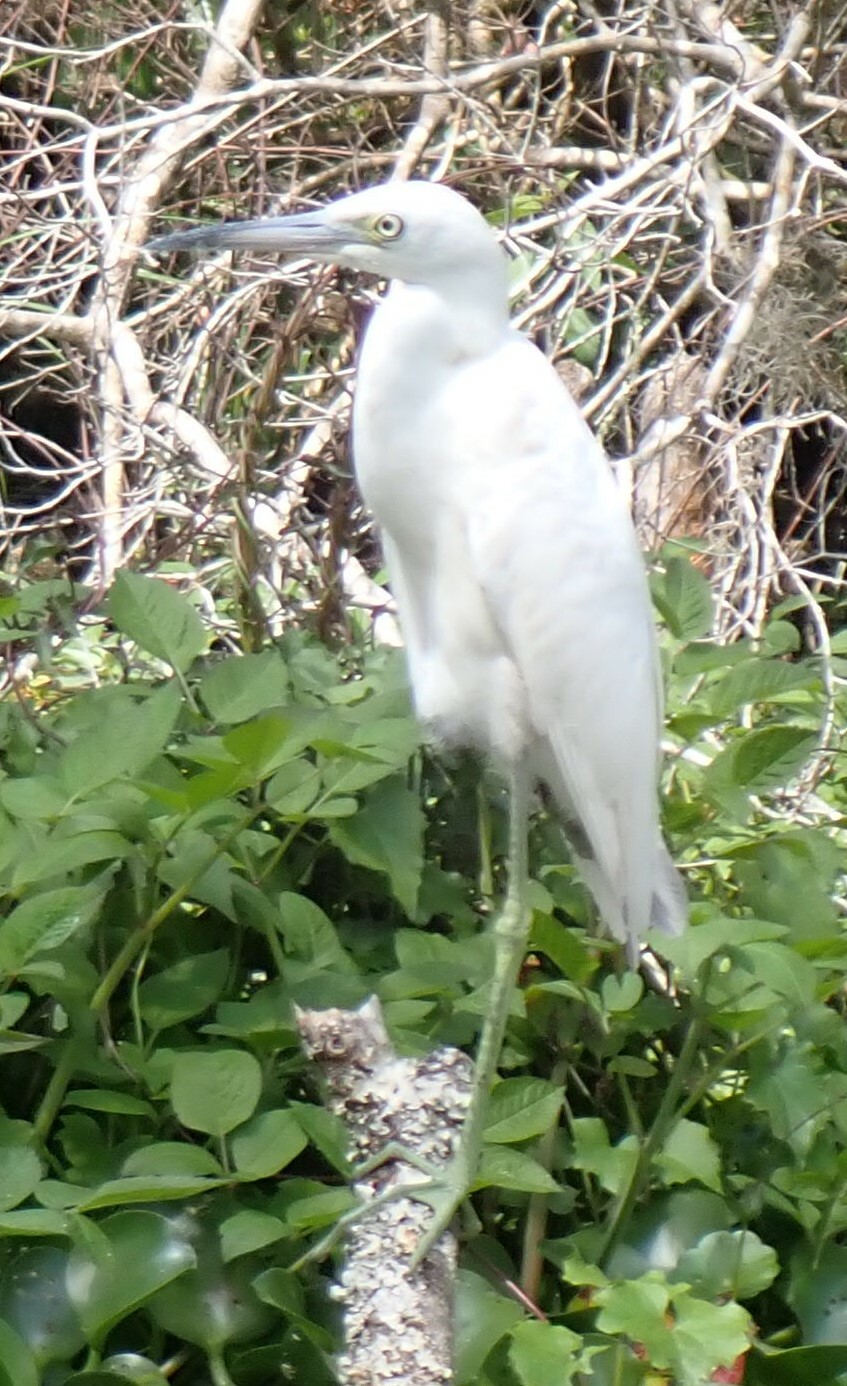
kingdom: Animalia
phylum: Chordata
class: Aves
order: Pelecaniformes
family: Ardeidae
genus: Egretta
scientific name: Egretta caerulea
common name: Little blue heron
